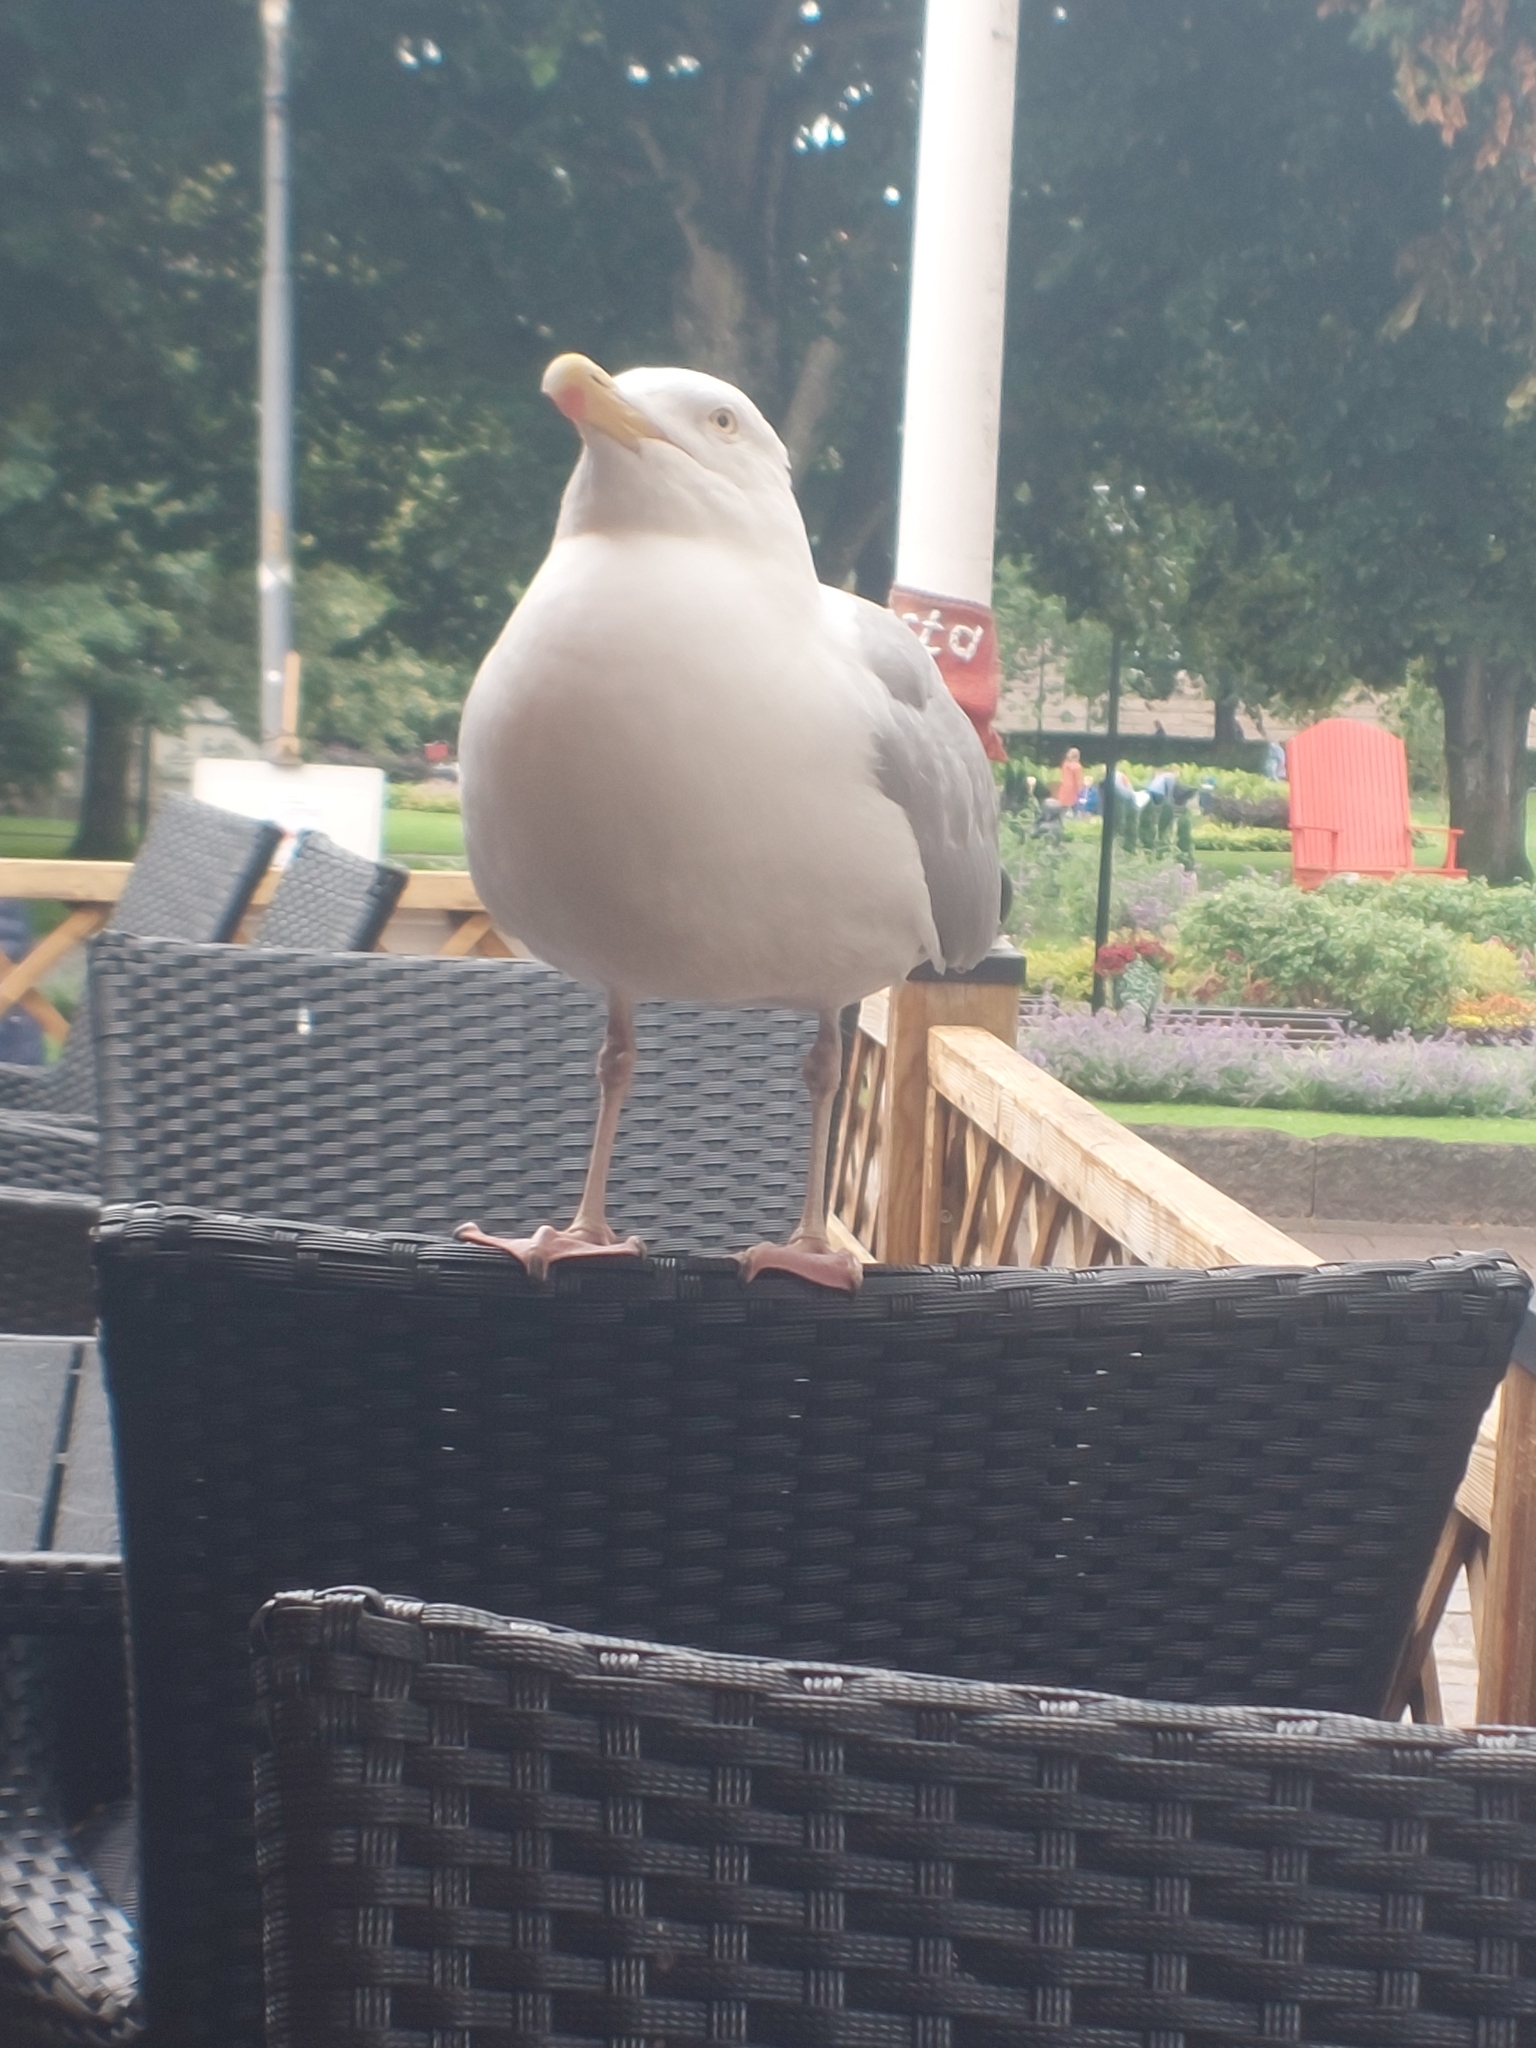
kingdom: Animalia
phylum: Chordata
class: Aves
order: Charadriiformes
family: Laridae
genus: Larus
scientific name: Larus argentatus
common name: Herring gull
